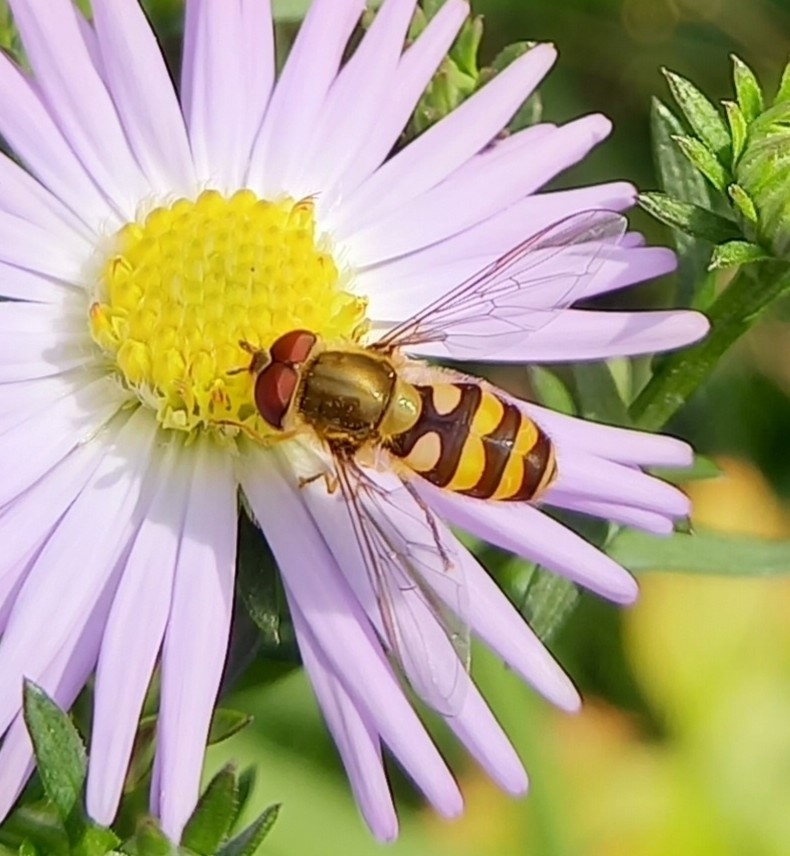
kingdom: Animalia
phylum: Arthropoda
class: Insecta
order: Diptera
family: Syrphidae
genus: Syrphus
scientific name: Syrphus
